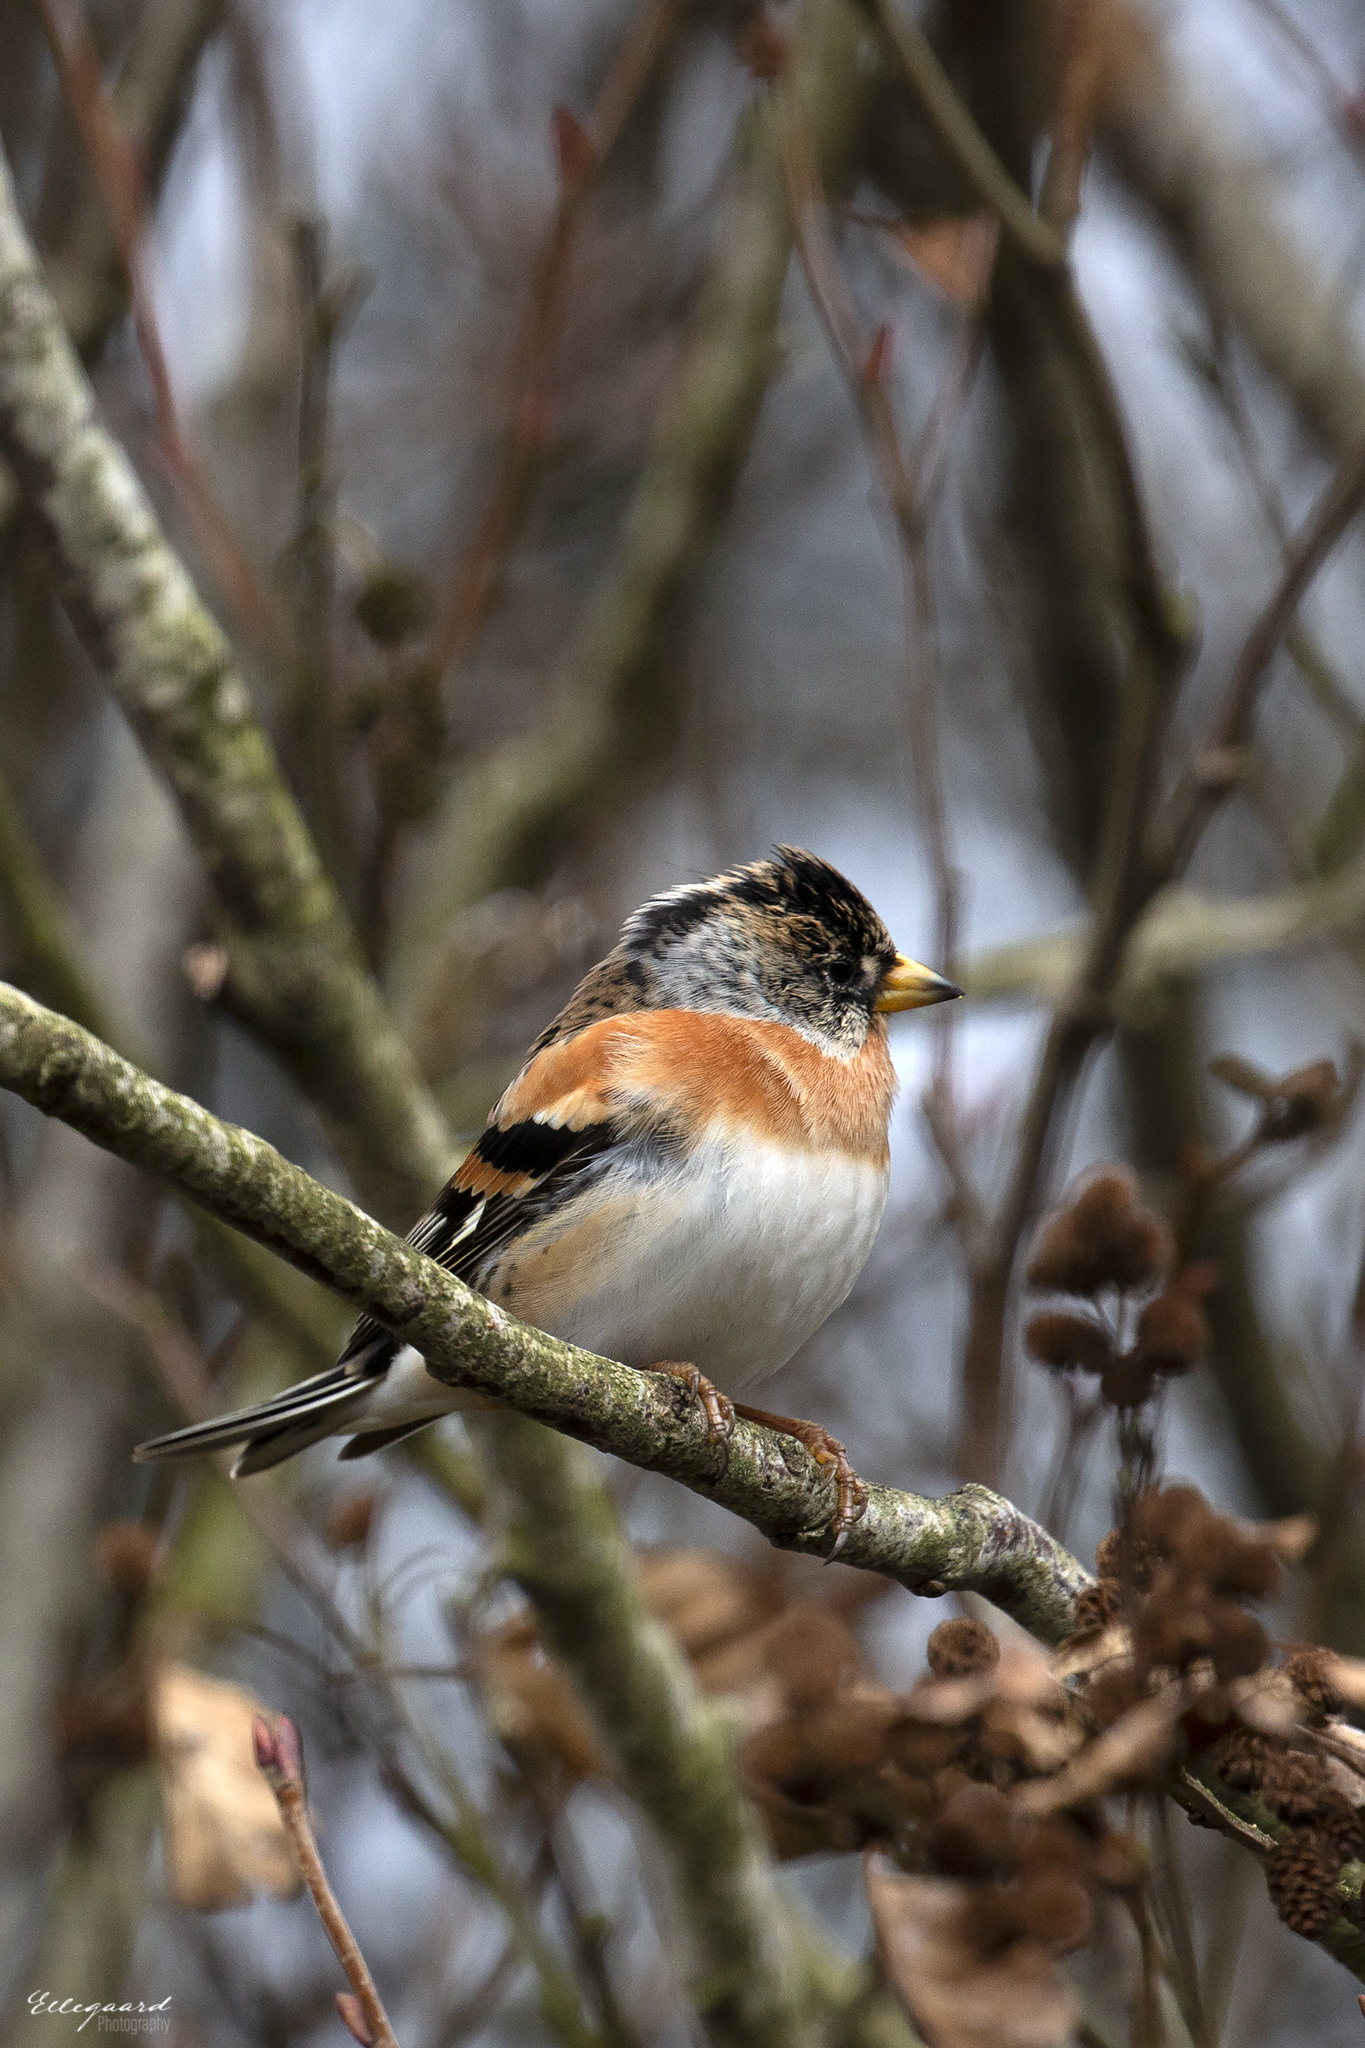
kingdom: Animalia
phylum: Chordata
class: Aves
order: Passeriformes
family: Fringillidae
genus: Fringilla
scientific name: Fringilla montifringilla
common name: Brambling
